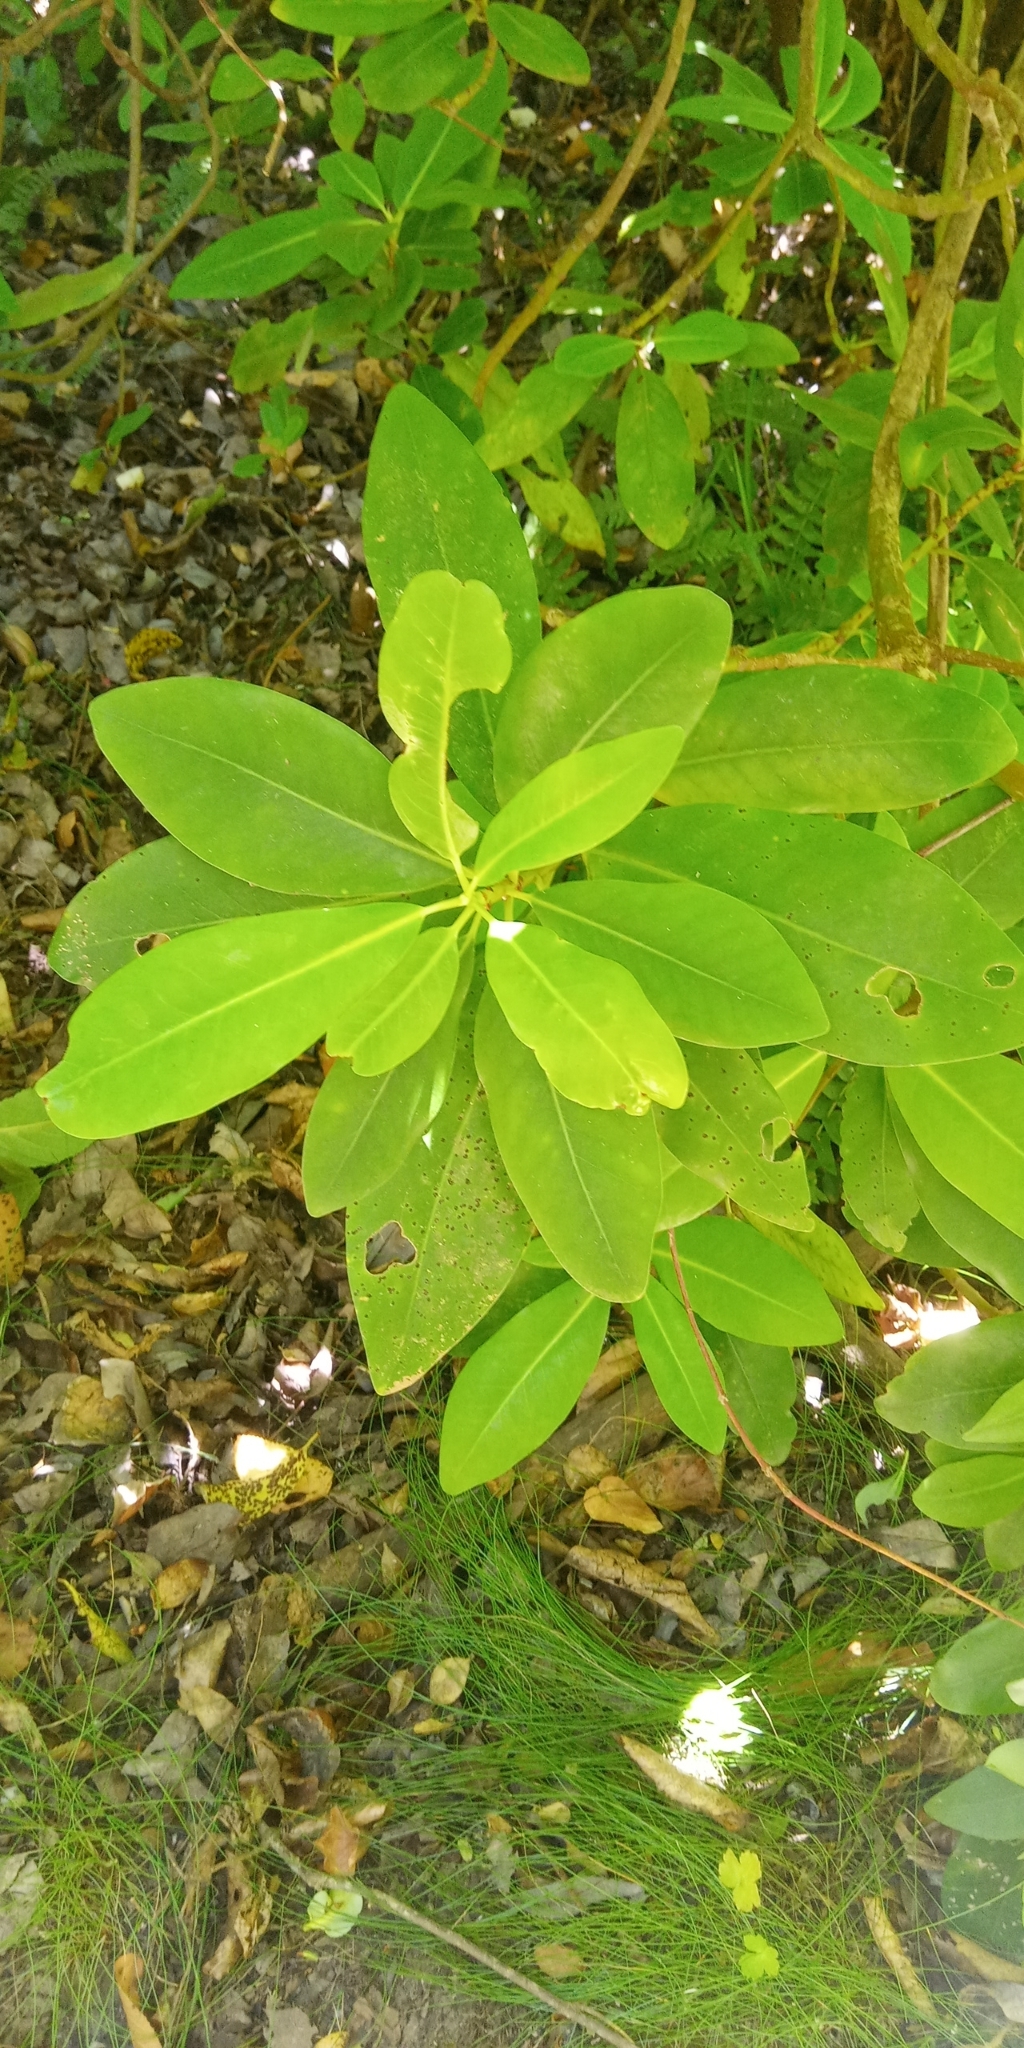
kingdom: Plantae
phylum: Tracheophyta
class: Magnoliopsida
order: Canellales
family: Winteraceae
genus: Drimys
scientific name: Drimys winteri
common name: Winter's-bark
